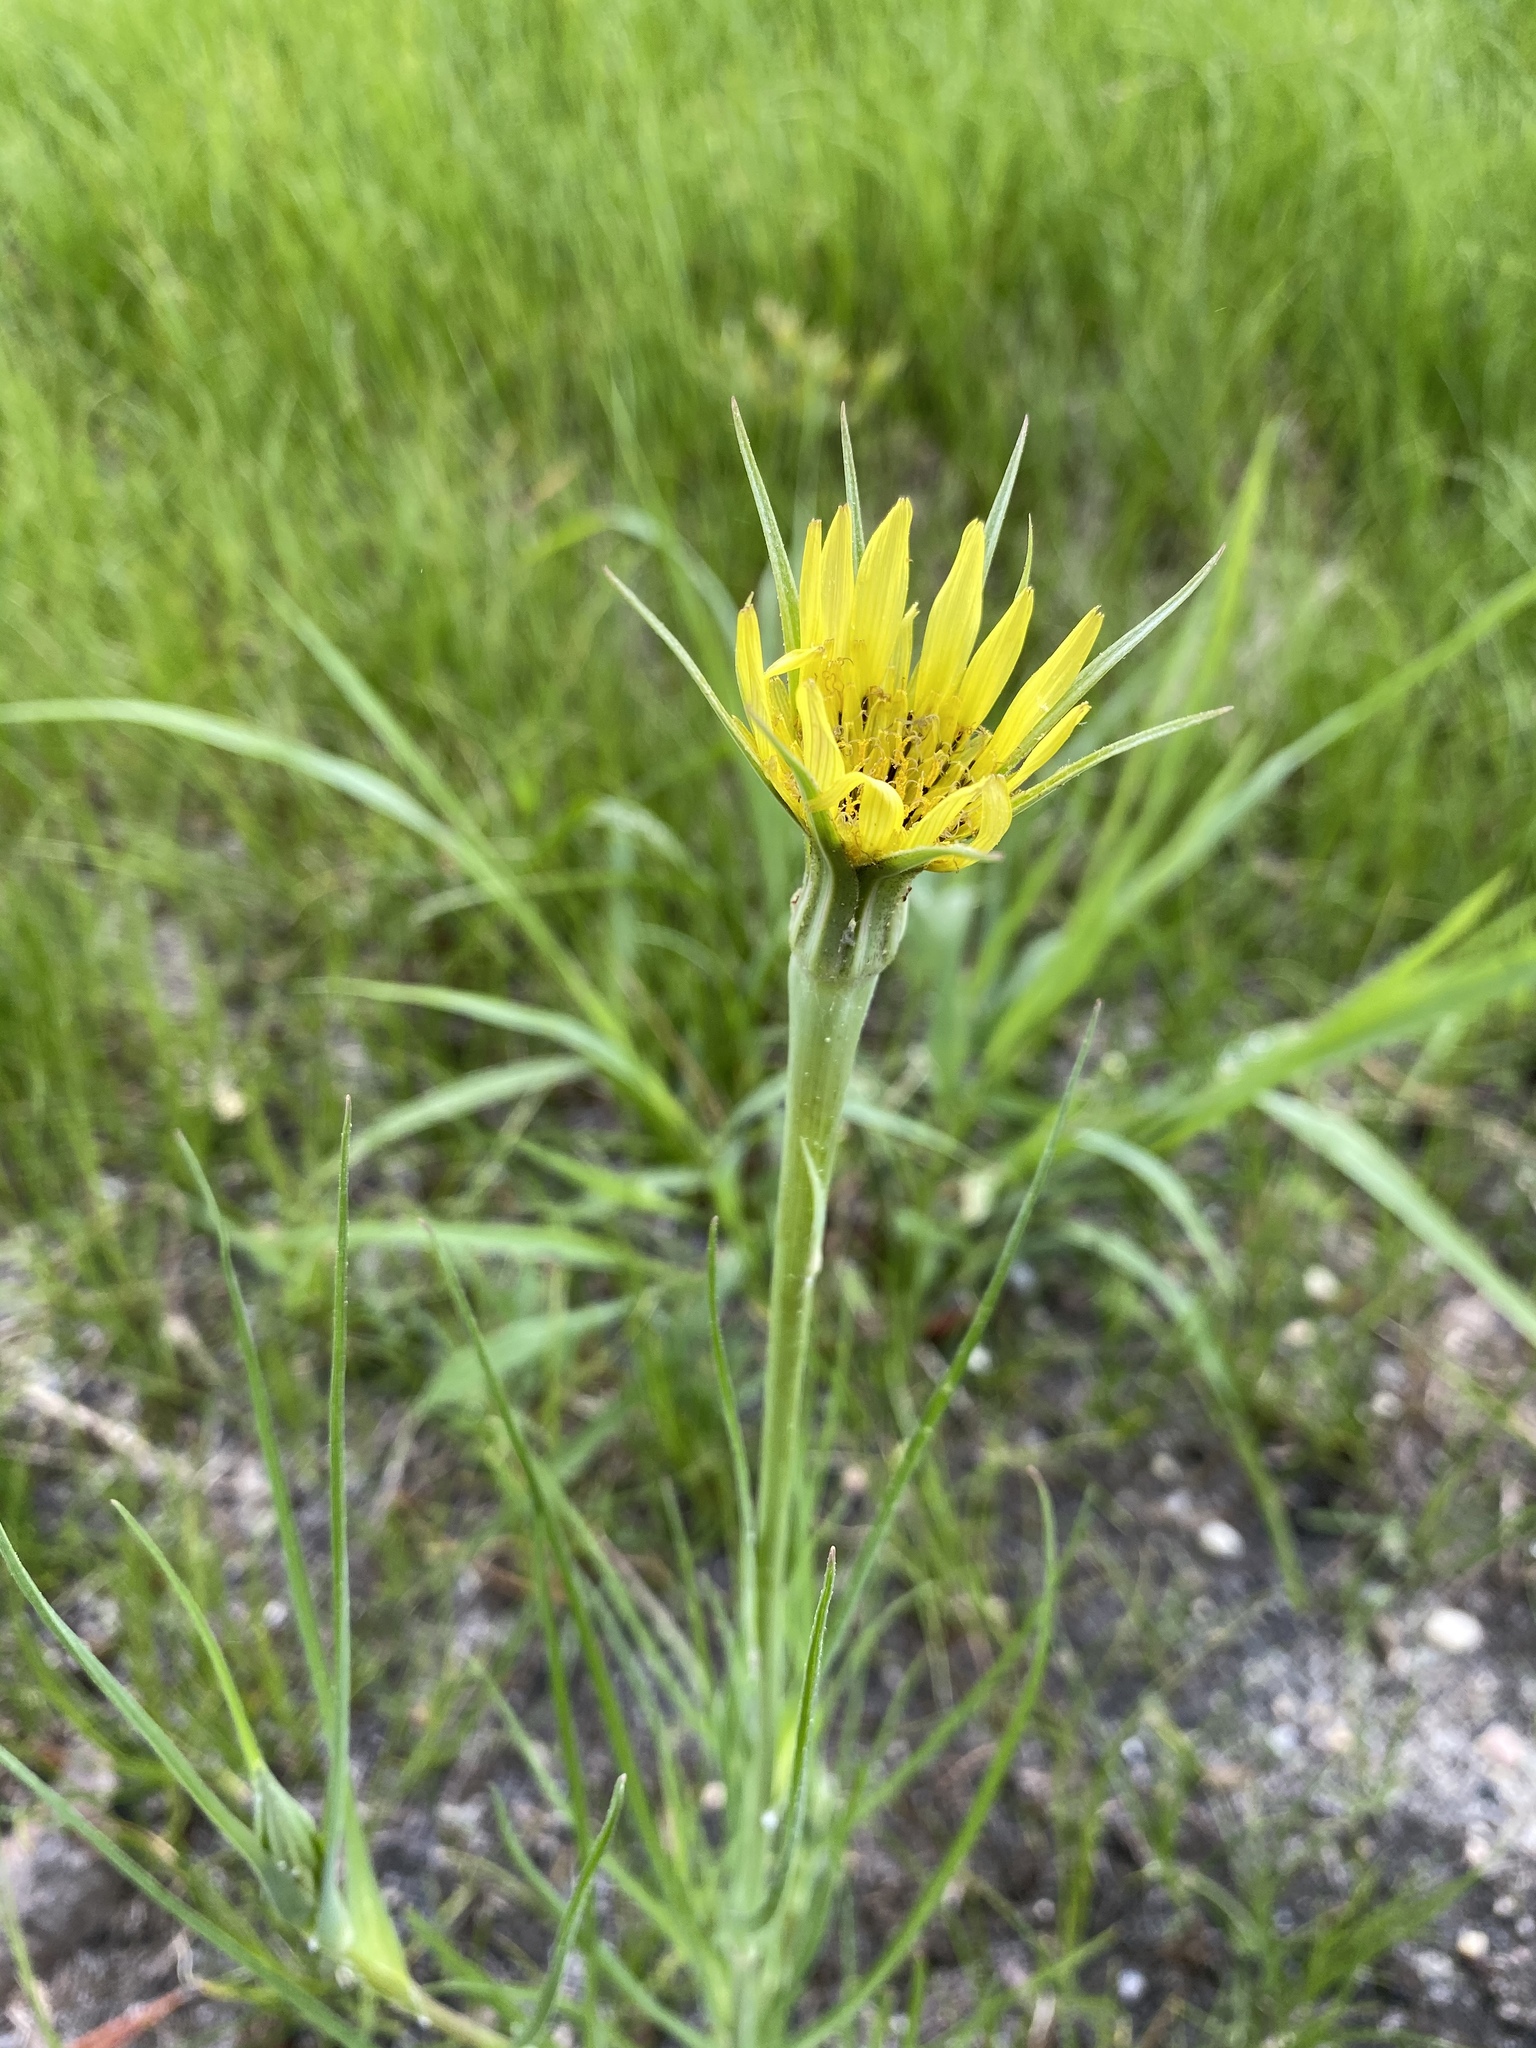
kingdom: Plantae
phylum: Tracheophyta
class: Magnoliopsida
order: Asterales
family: Asteraceae
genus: Tragopogon
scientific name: Tragopogon dubius
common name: Yellow salsify
